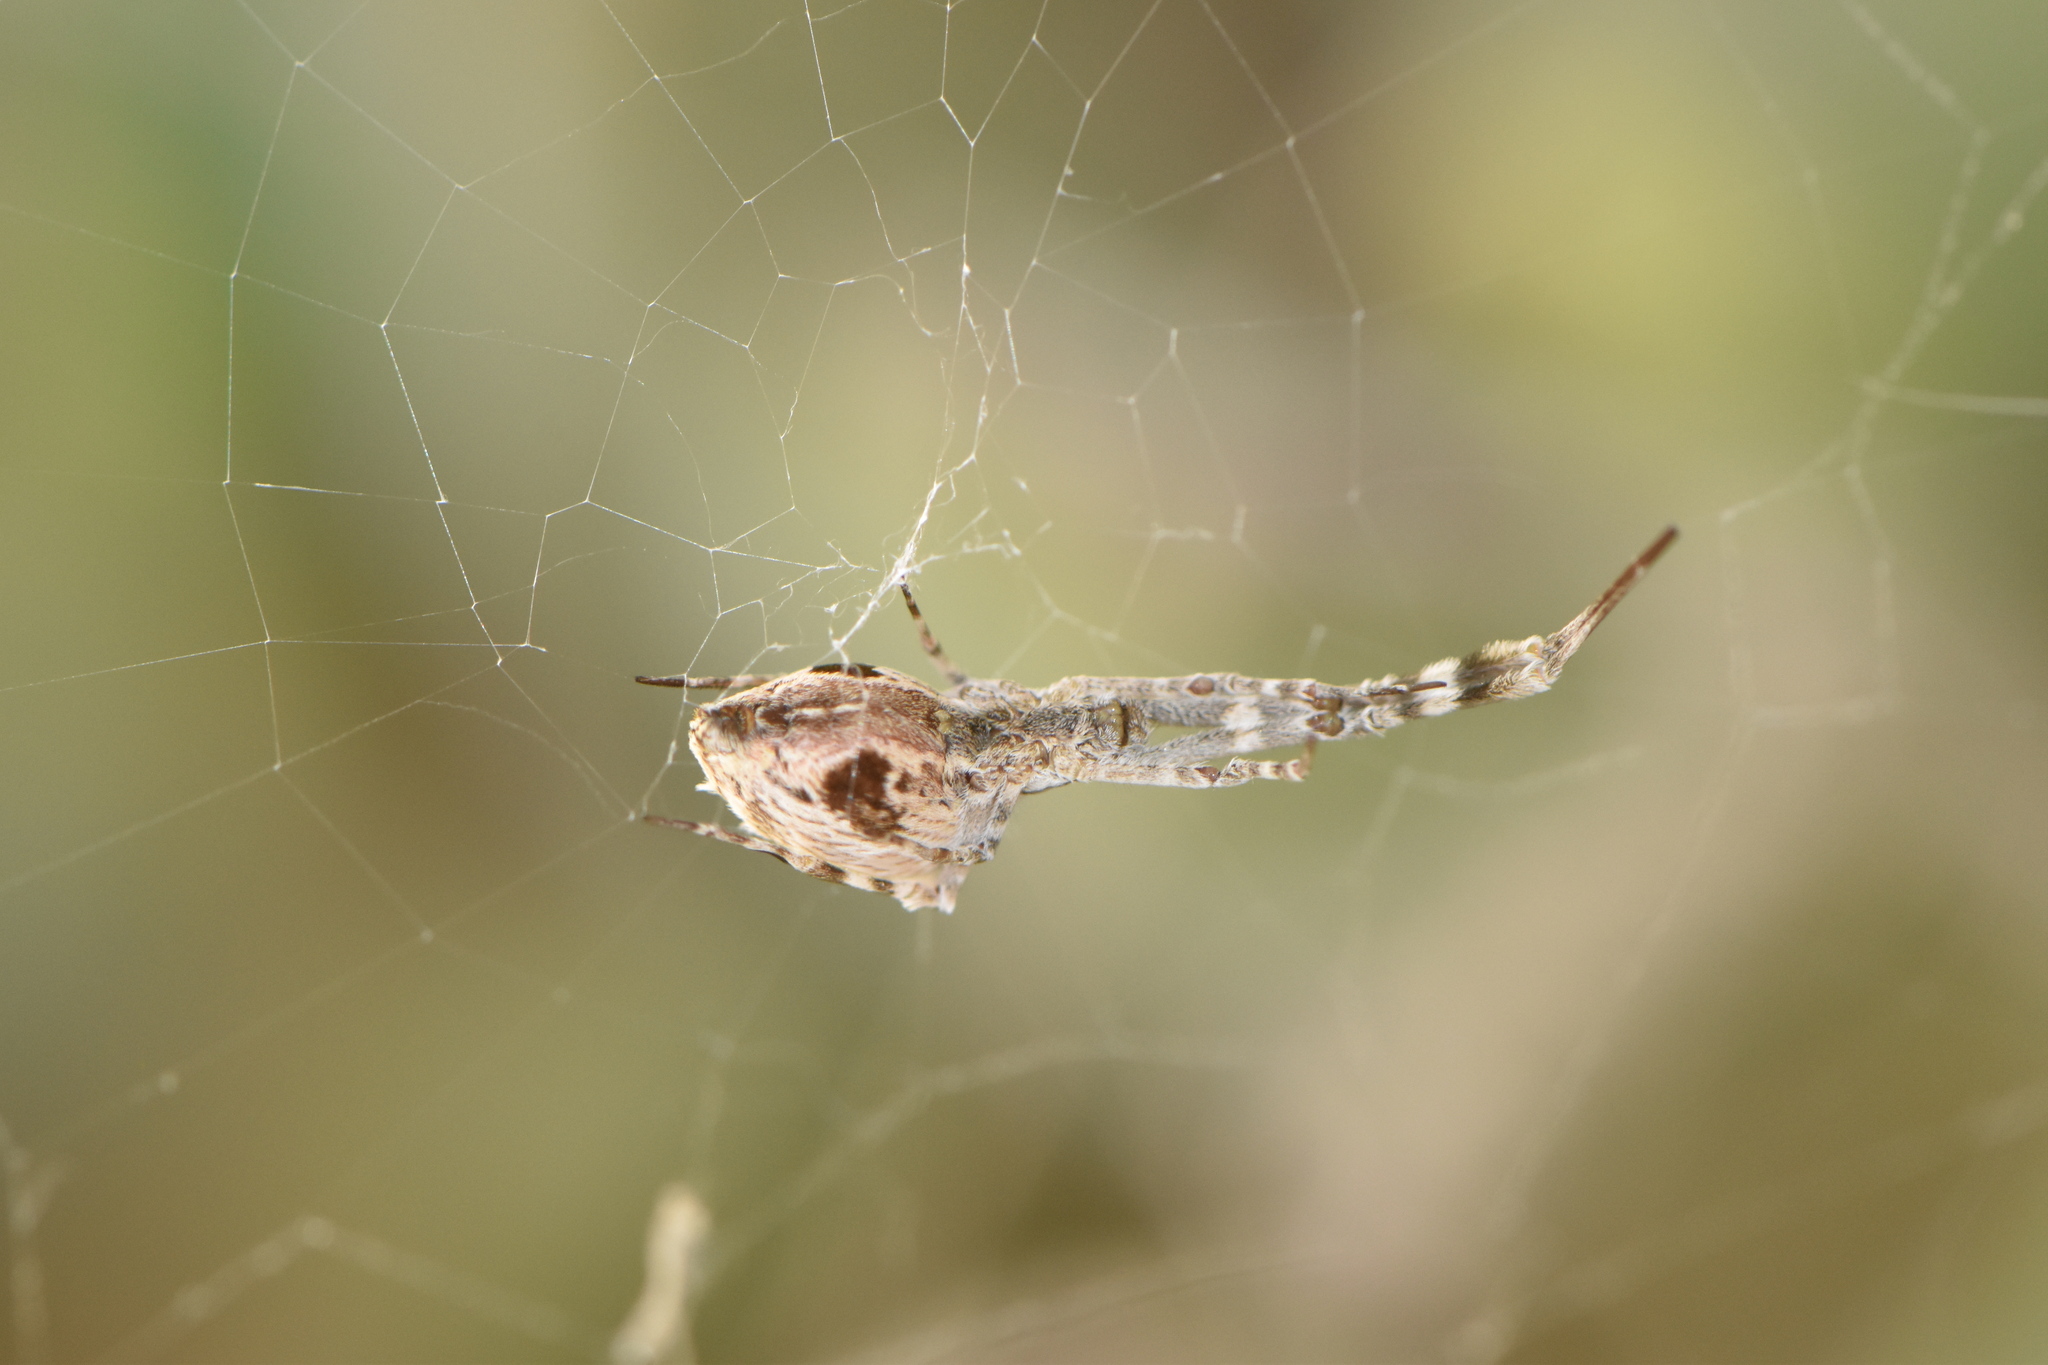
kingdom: Animalia
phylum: Arthropoda
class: Arachnida
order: Araneae
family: Uloboridae
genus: Uloborus
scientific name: Uloborus walckenaerius
